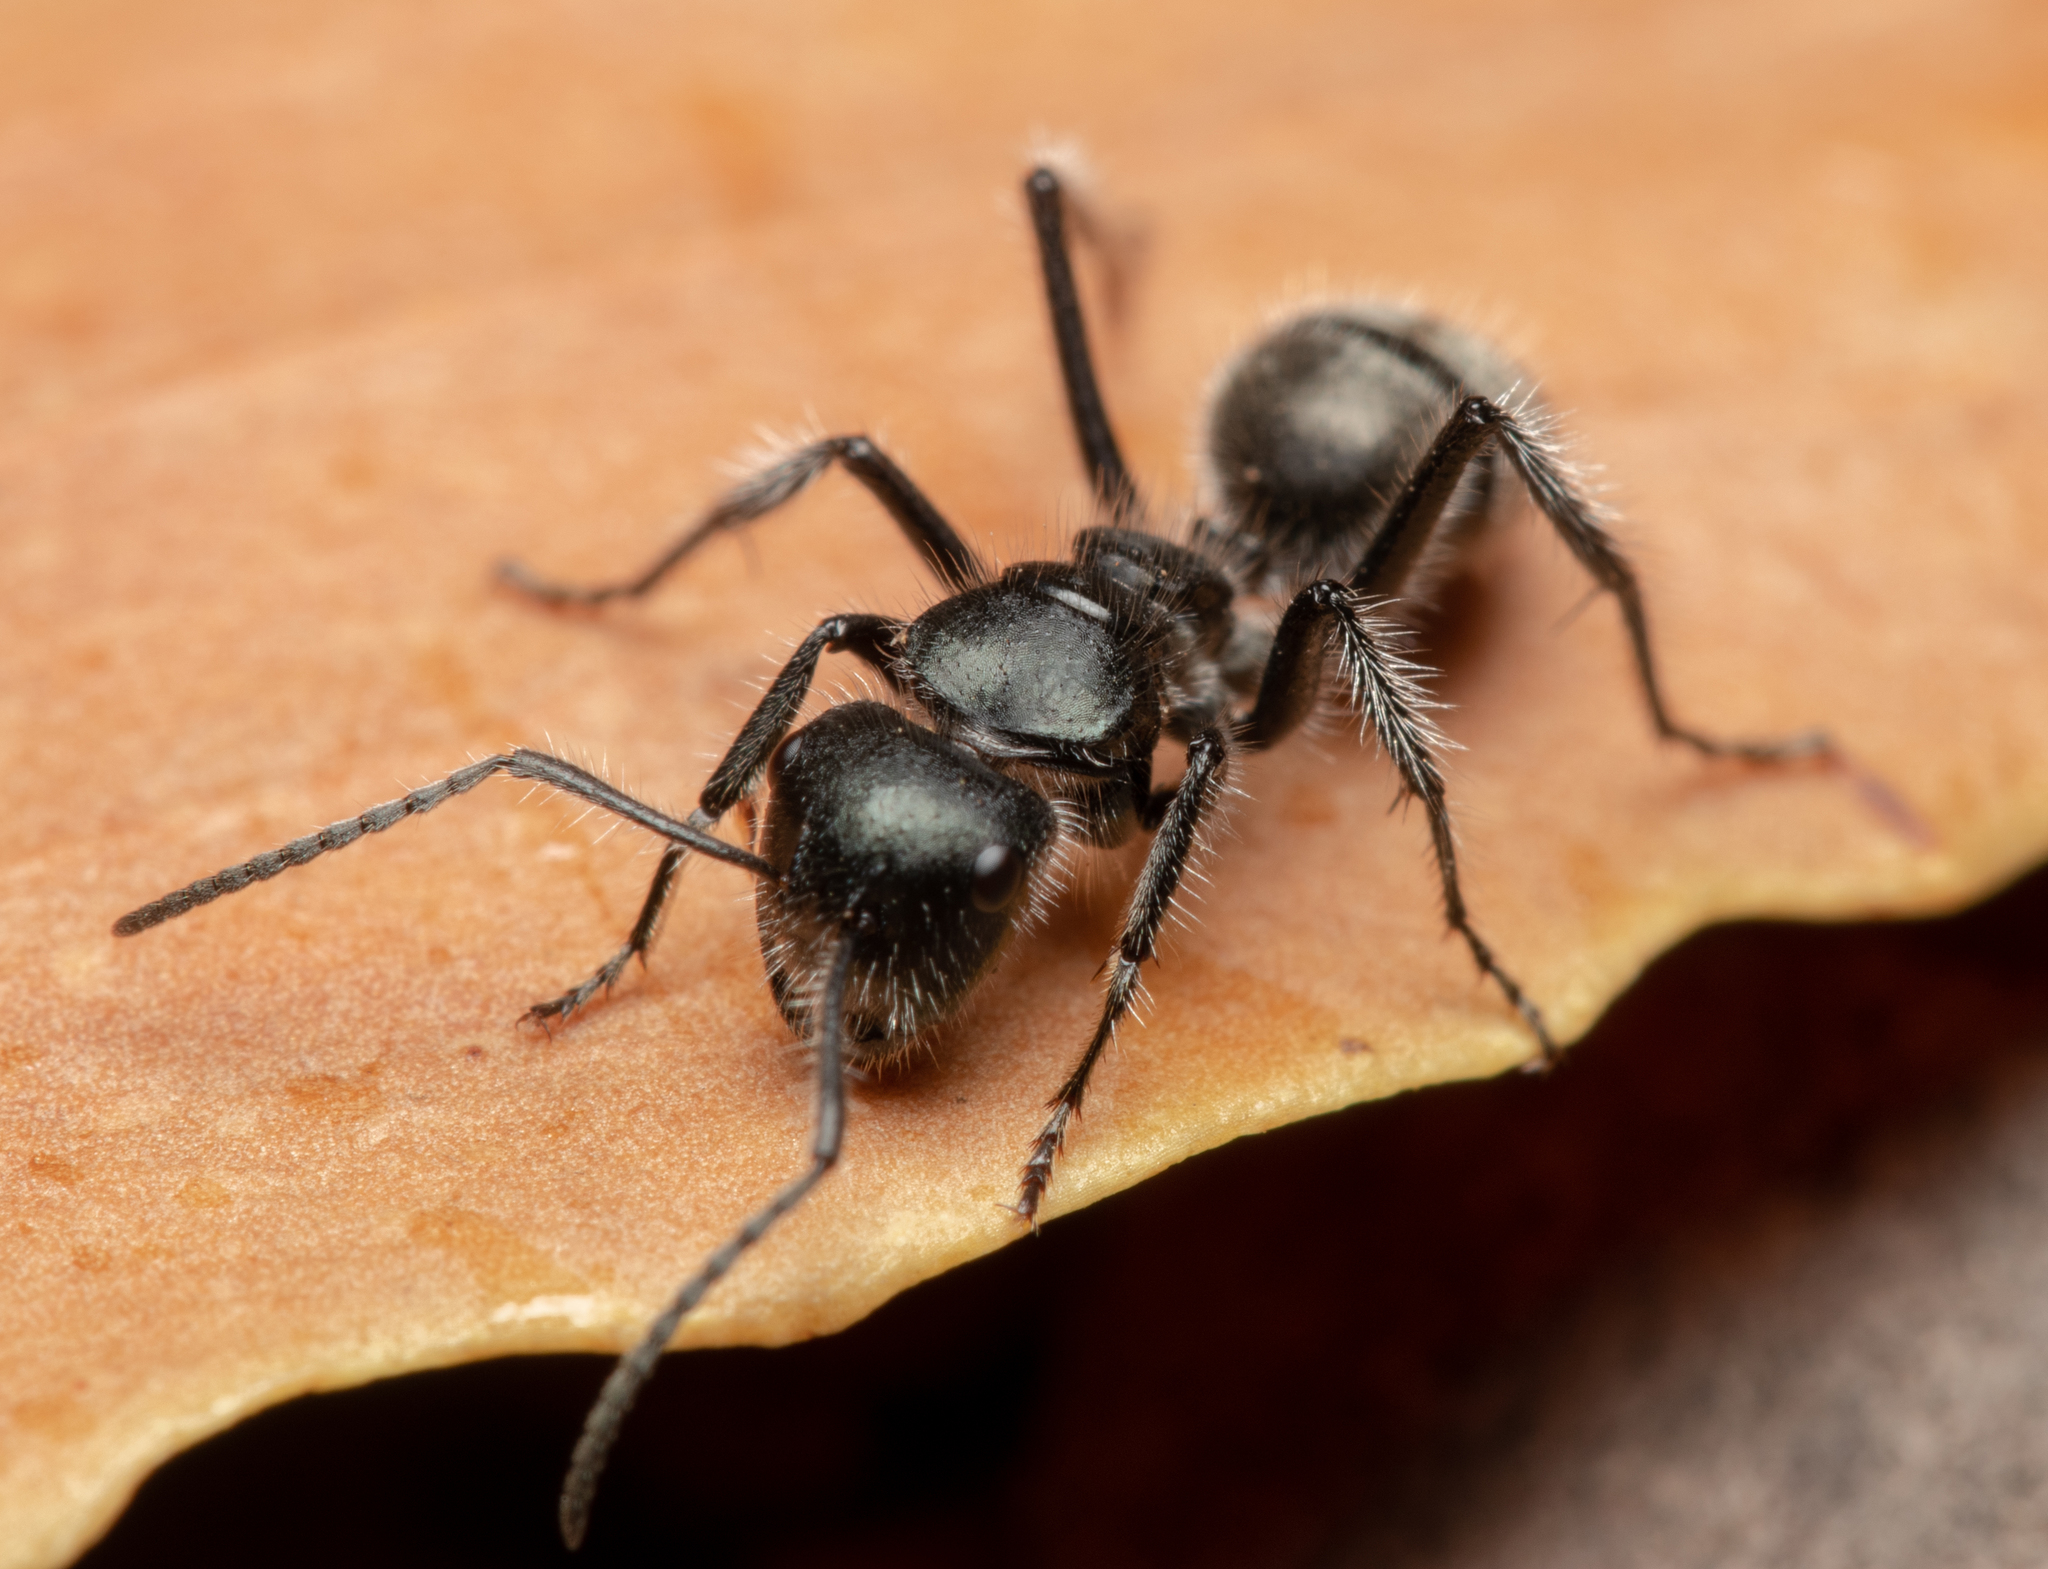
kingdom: Animalia
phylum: Arthropoda
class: Insecta
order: Hymenoptera
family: Formicidae
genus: Calomyrmex
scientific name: Calomyrmex albopilosus
